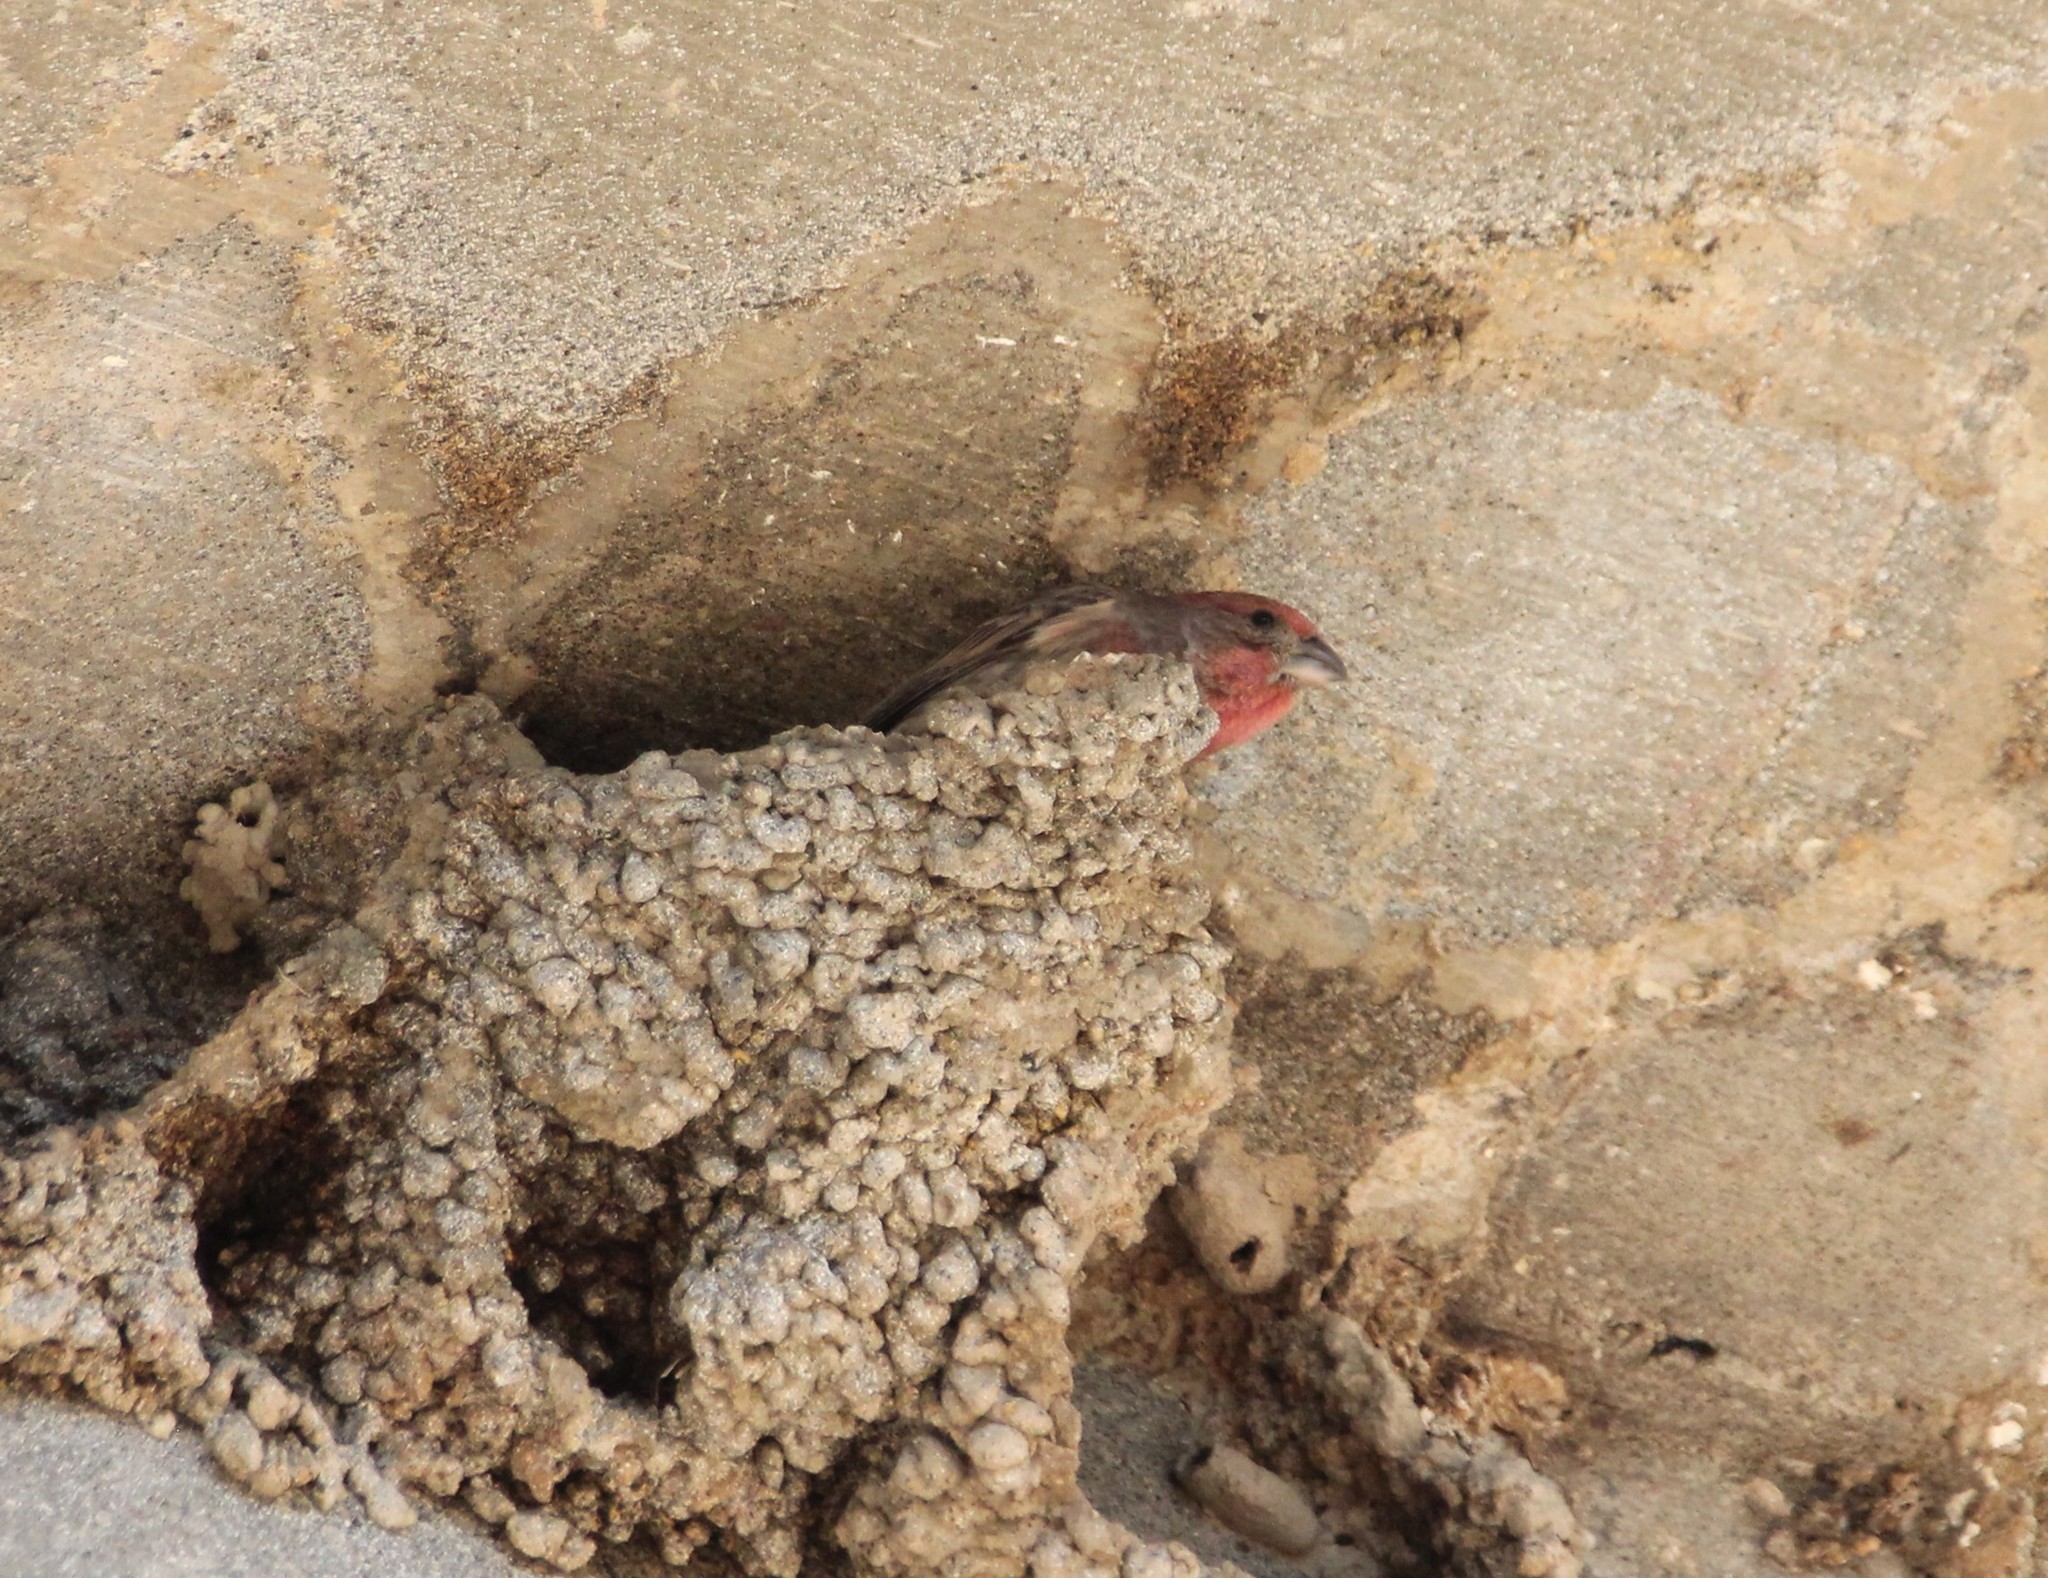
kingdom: Animalia
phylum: Chordata
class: Aves
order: Passeriformes
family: Fringillidae
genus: Haemorhous
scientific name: Haemorhous mexicanus
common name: House finch
